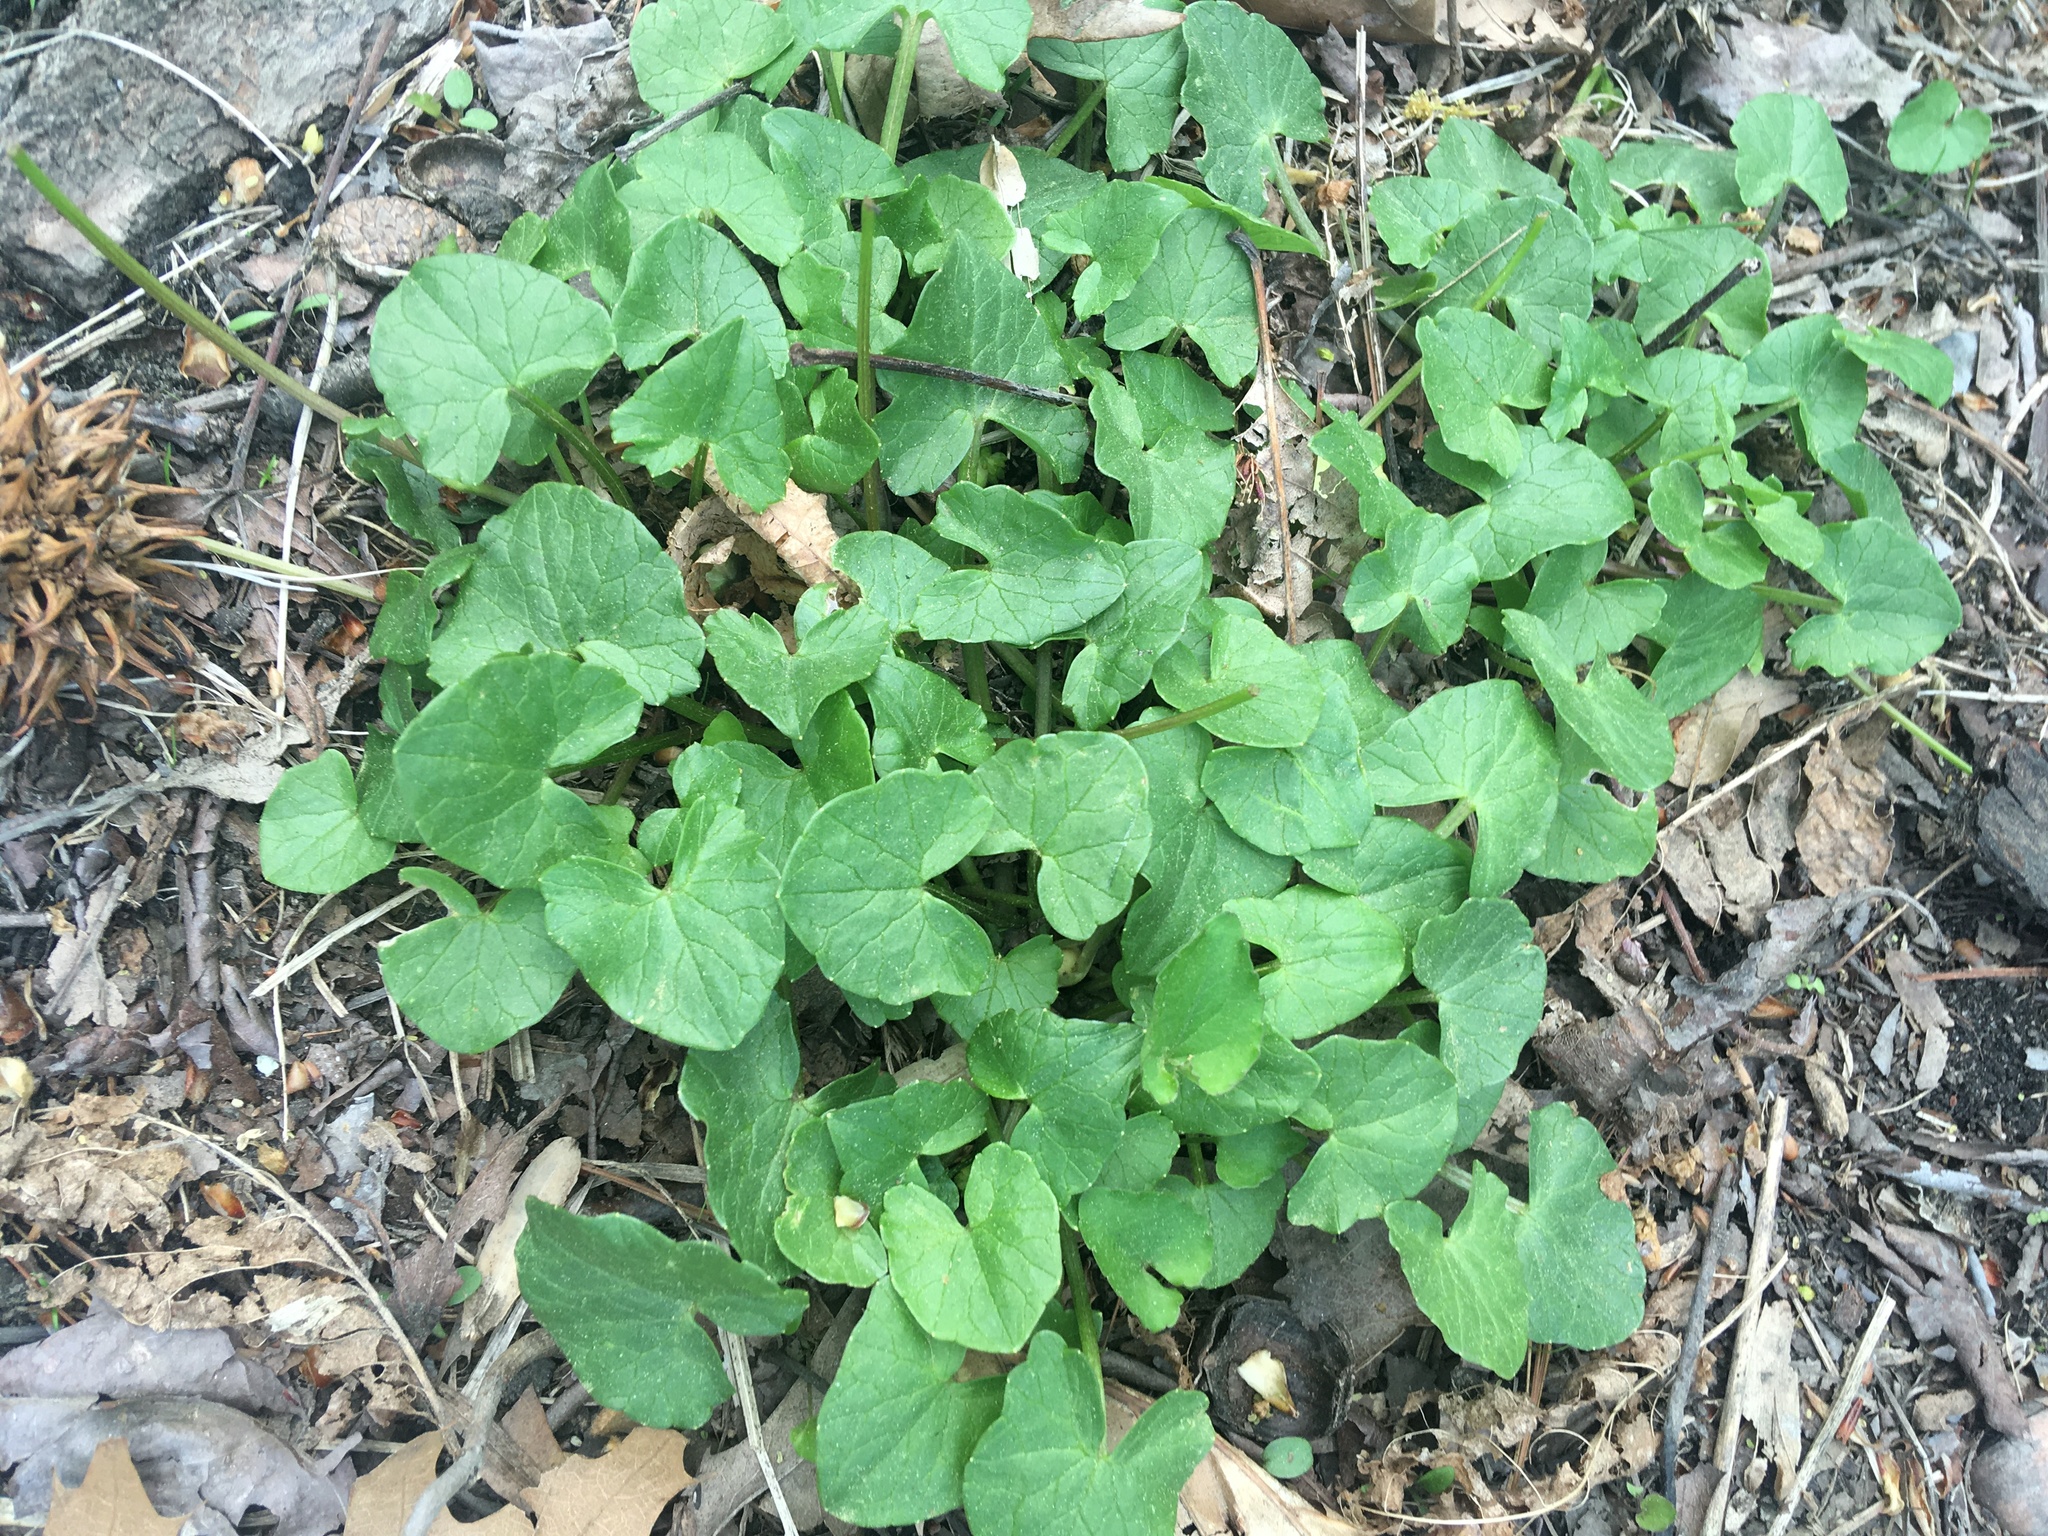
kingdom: Plantae
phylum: Tracheophyta
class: Magnoliopsida
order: Ranunculales
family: Ranunculaceae
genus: Ficaria
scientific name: Ficaria verna
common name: Lesser celandine
